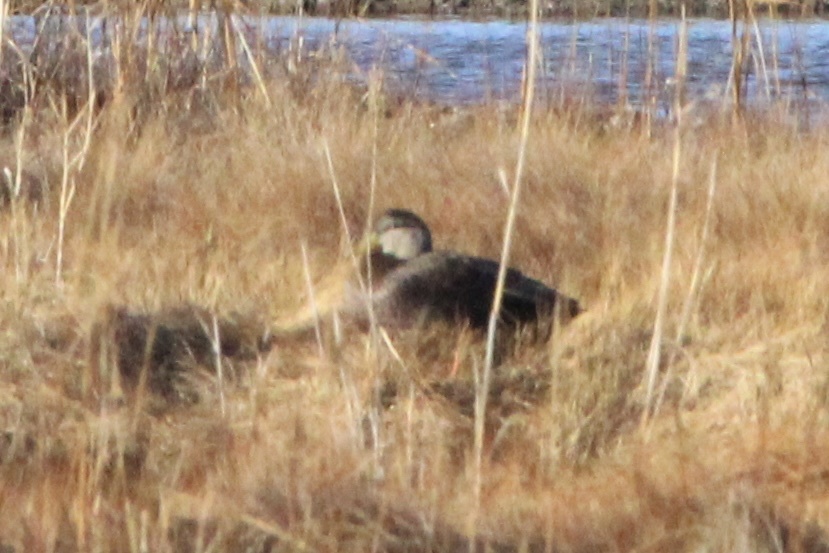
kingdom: Animalia
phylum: Chordata
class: Aves
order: Anseriformes
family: Anatidae
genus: Anas
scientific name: Anas rubripes
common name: American black duck
